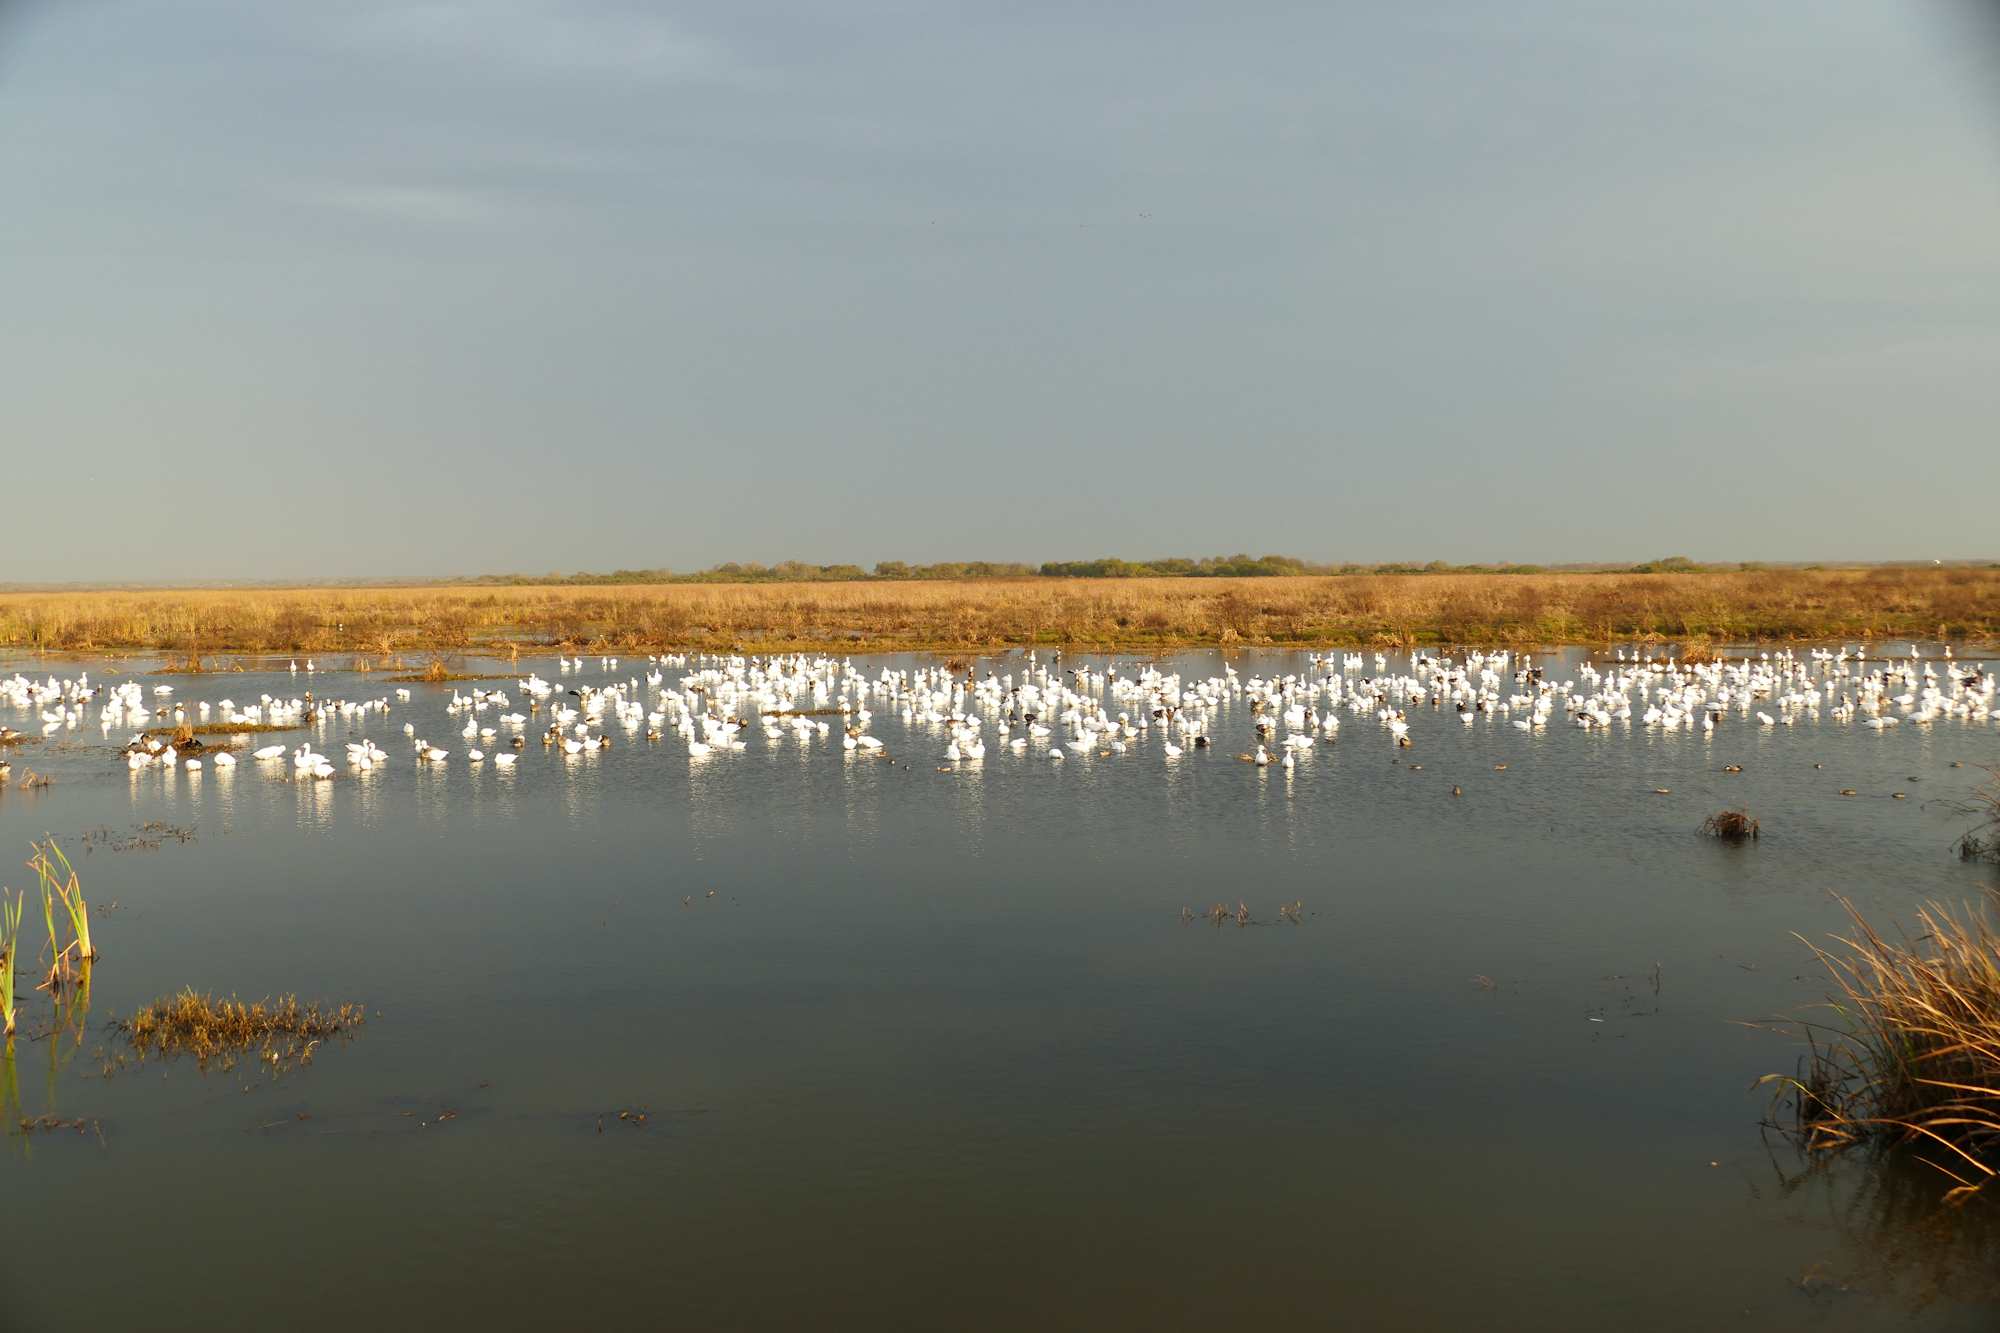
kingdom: Animalia
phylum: Chordata
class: Aves
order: Anseriformes
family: Anatidae
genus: Anser
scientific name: Anser caerulescens
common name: Snow goose
